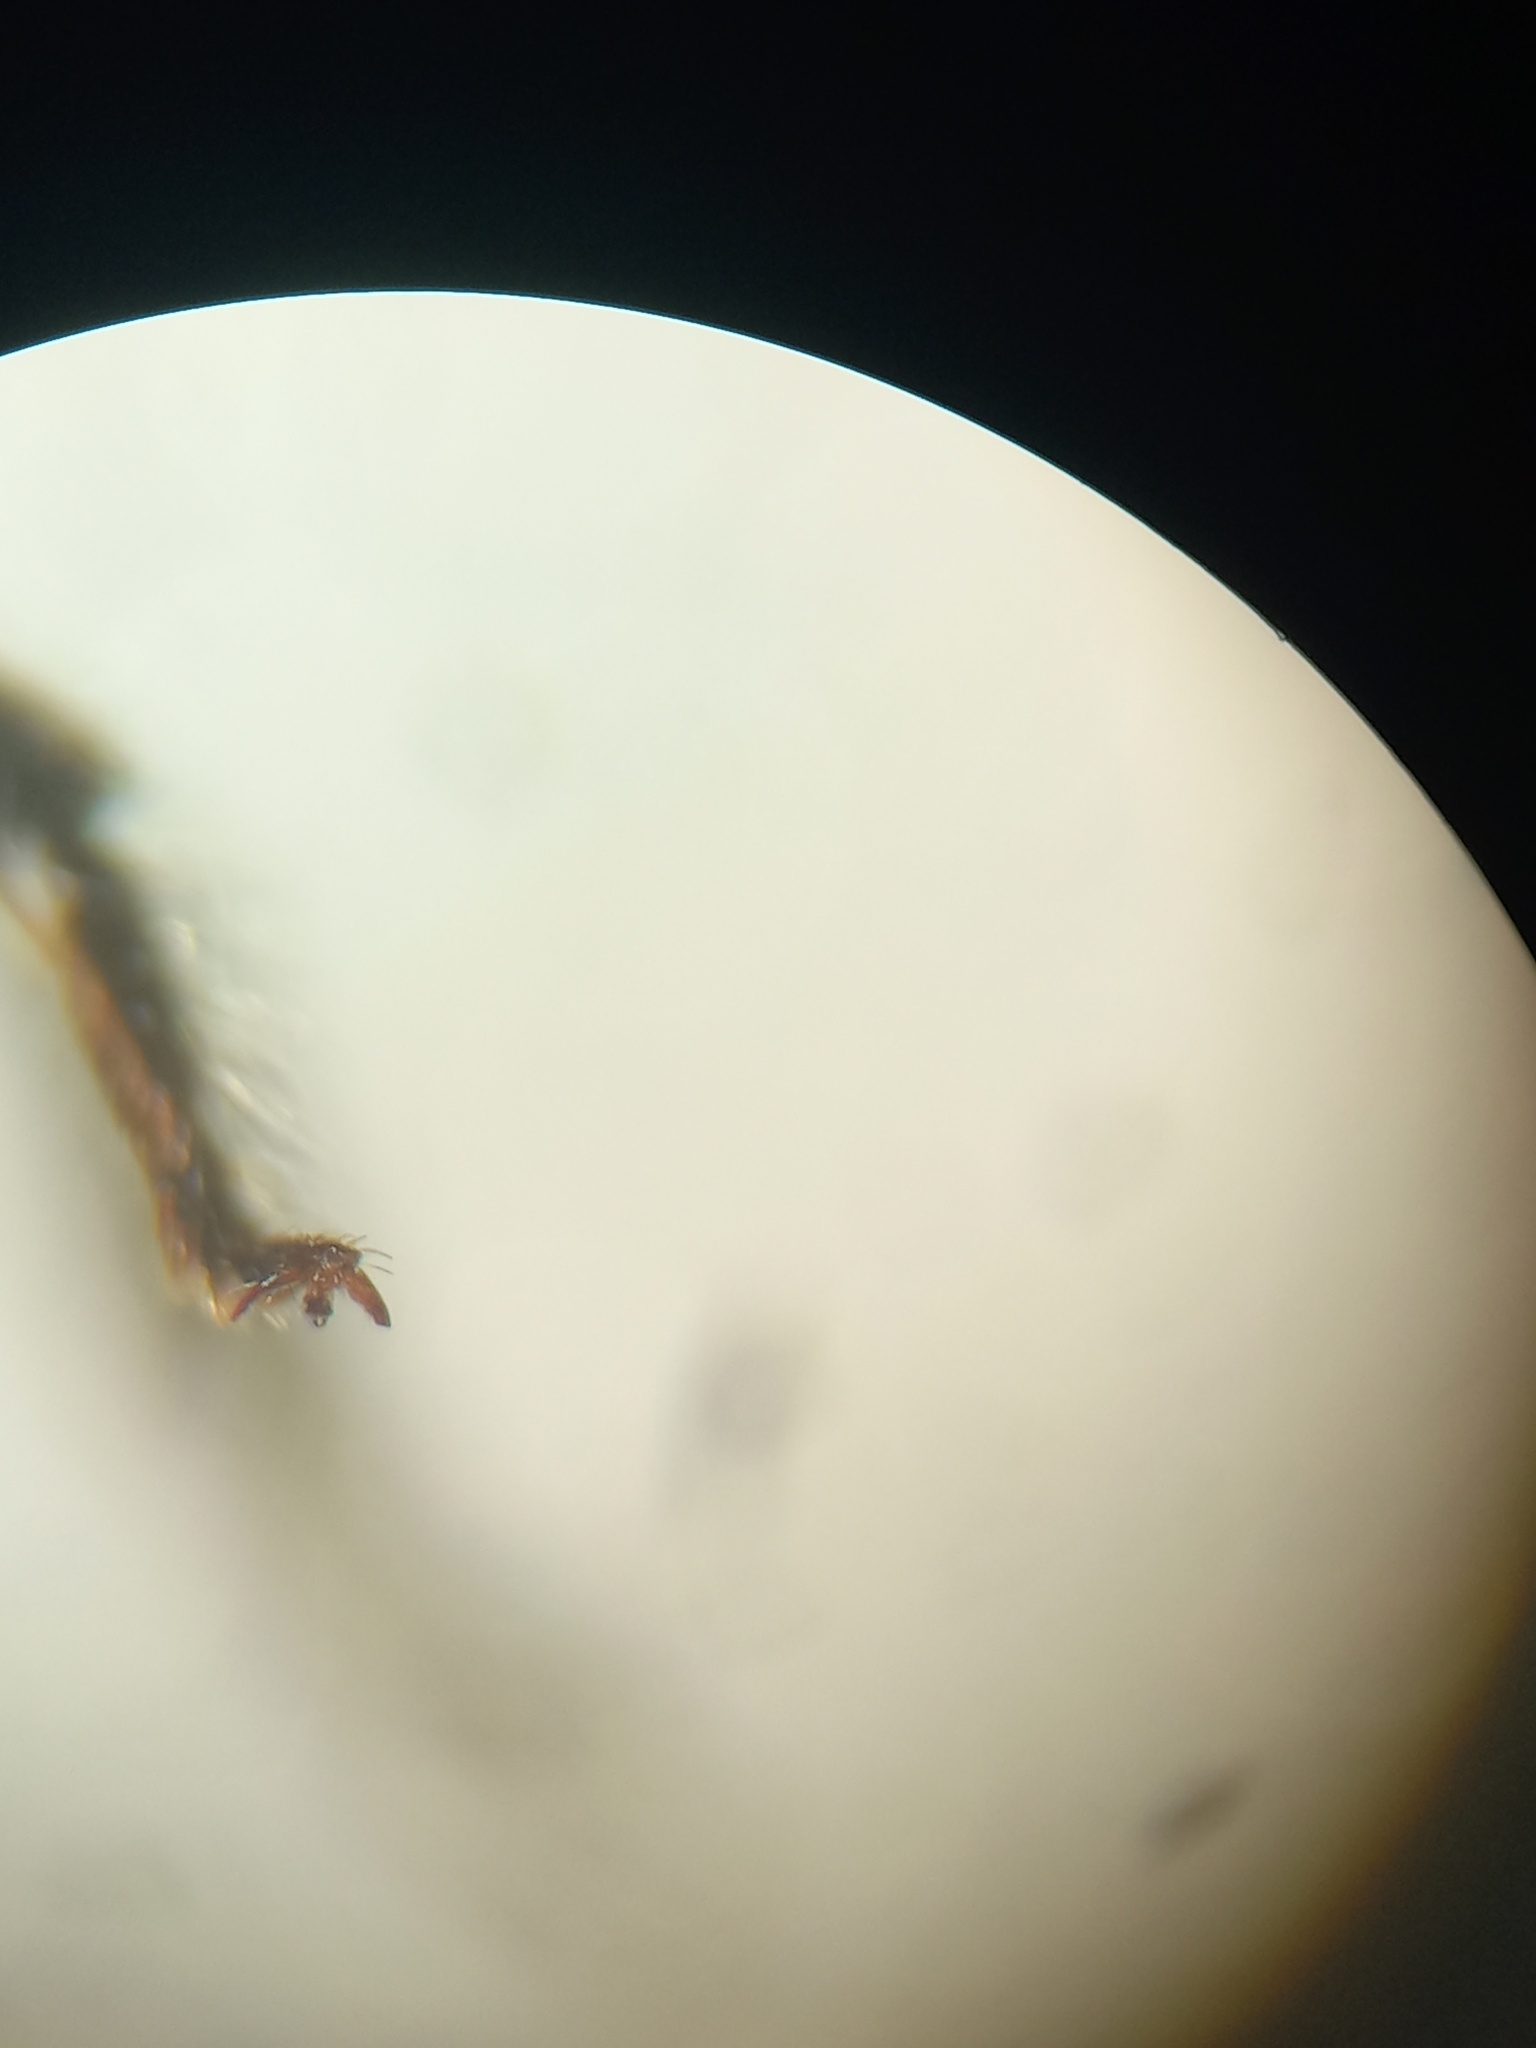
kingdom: Animalia
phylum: Arthropoda
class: Insecta
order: Hymenoptera
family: Megachilidae
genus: Osmia
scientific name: Osmia caerulescens
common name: Blue mason bee
